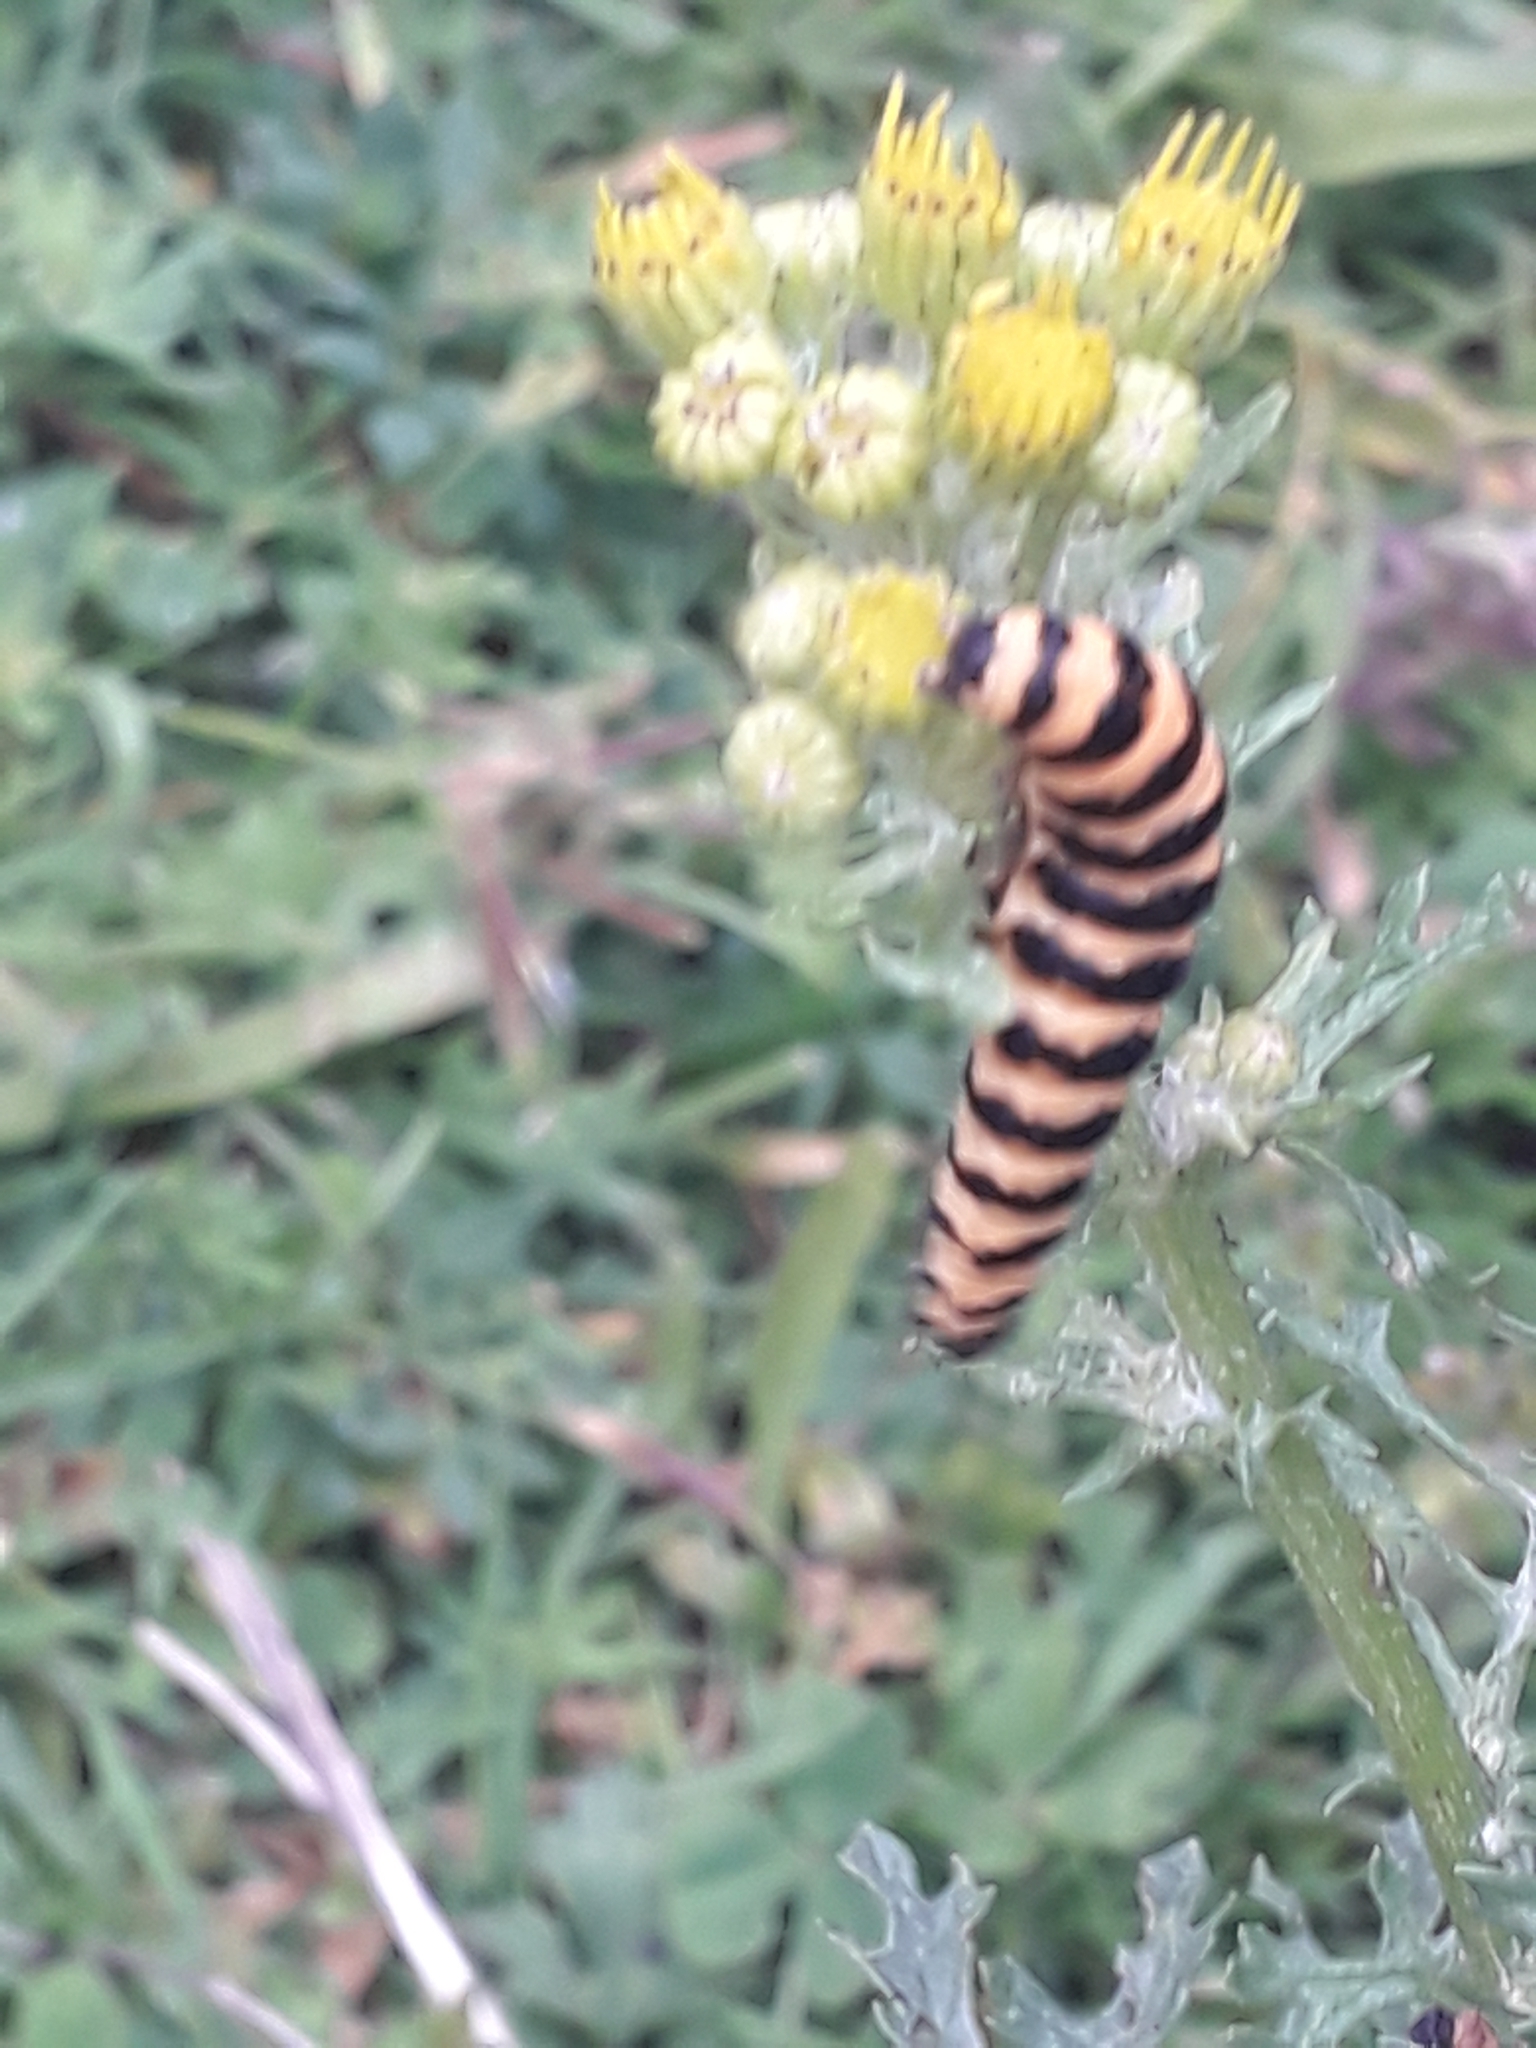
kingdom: Animalia
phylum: Arthropoda
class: Insecta
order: Lepidoptera
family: Erebidae
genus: Tyria
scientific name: Tyria jacobaeae
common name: Cinnabar
